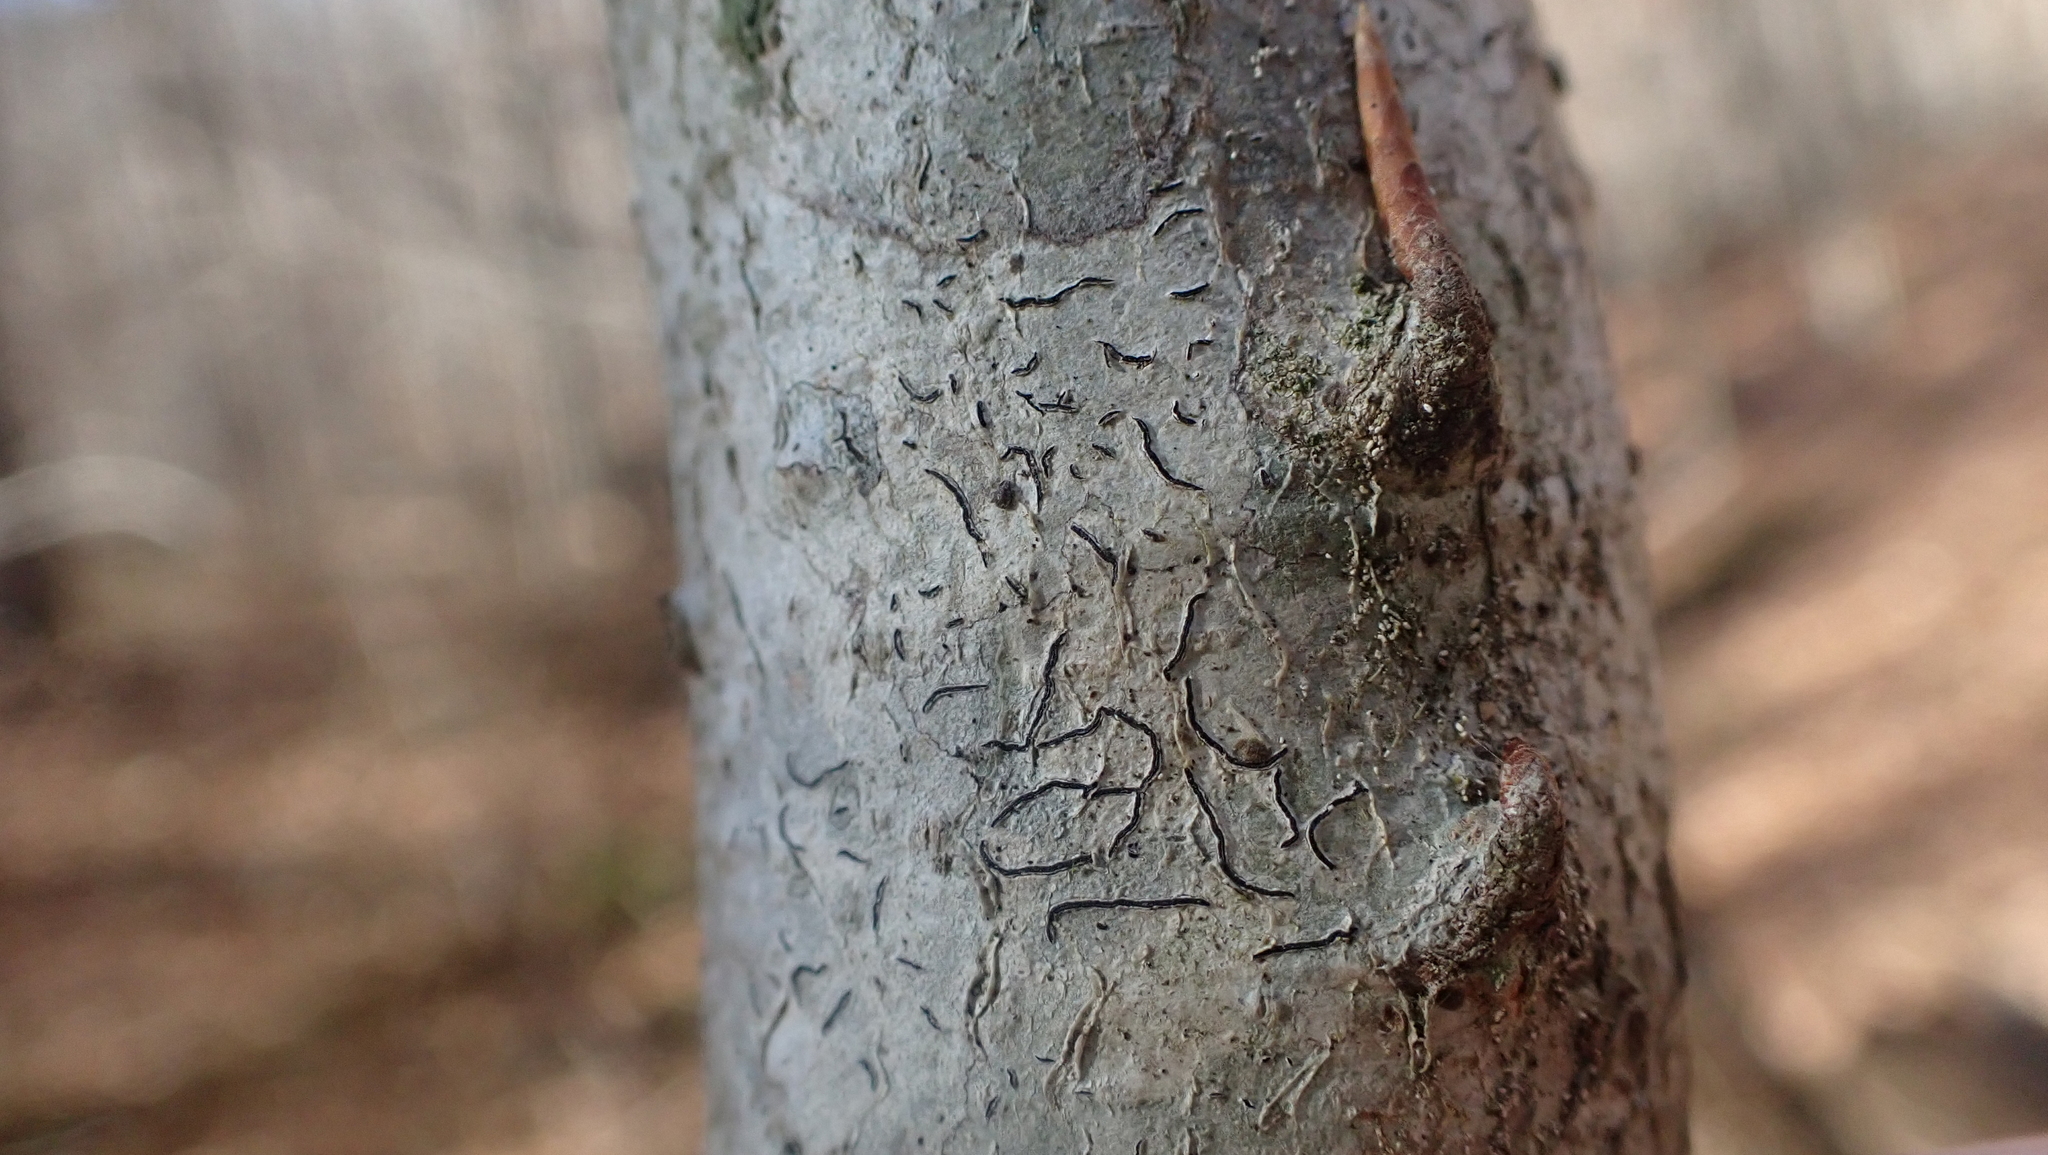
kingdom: Fungi
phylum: Ascomycota
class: Lecanoromycetes
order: Ostropales
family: Graphidaceae
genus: Graphis
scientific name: Graphis scripta
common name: Script lichen
